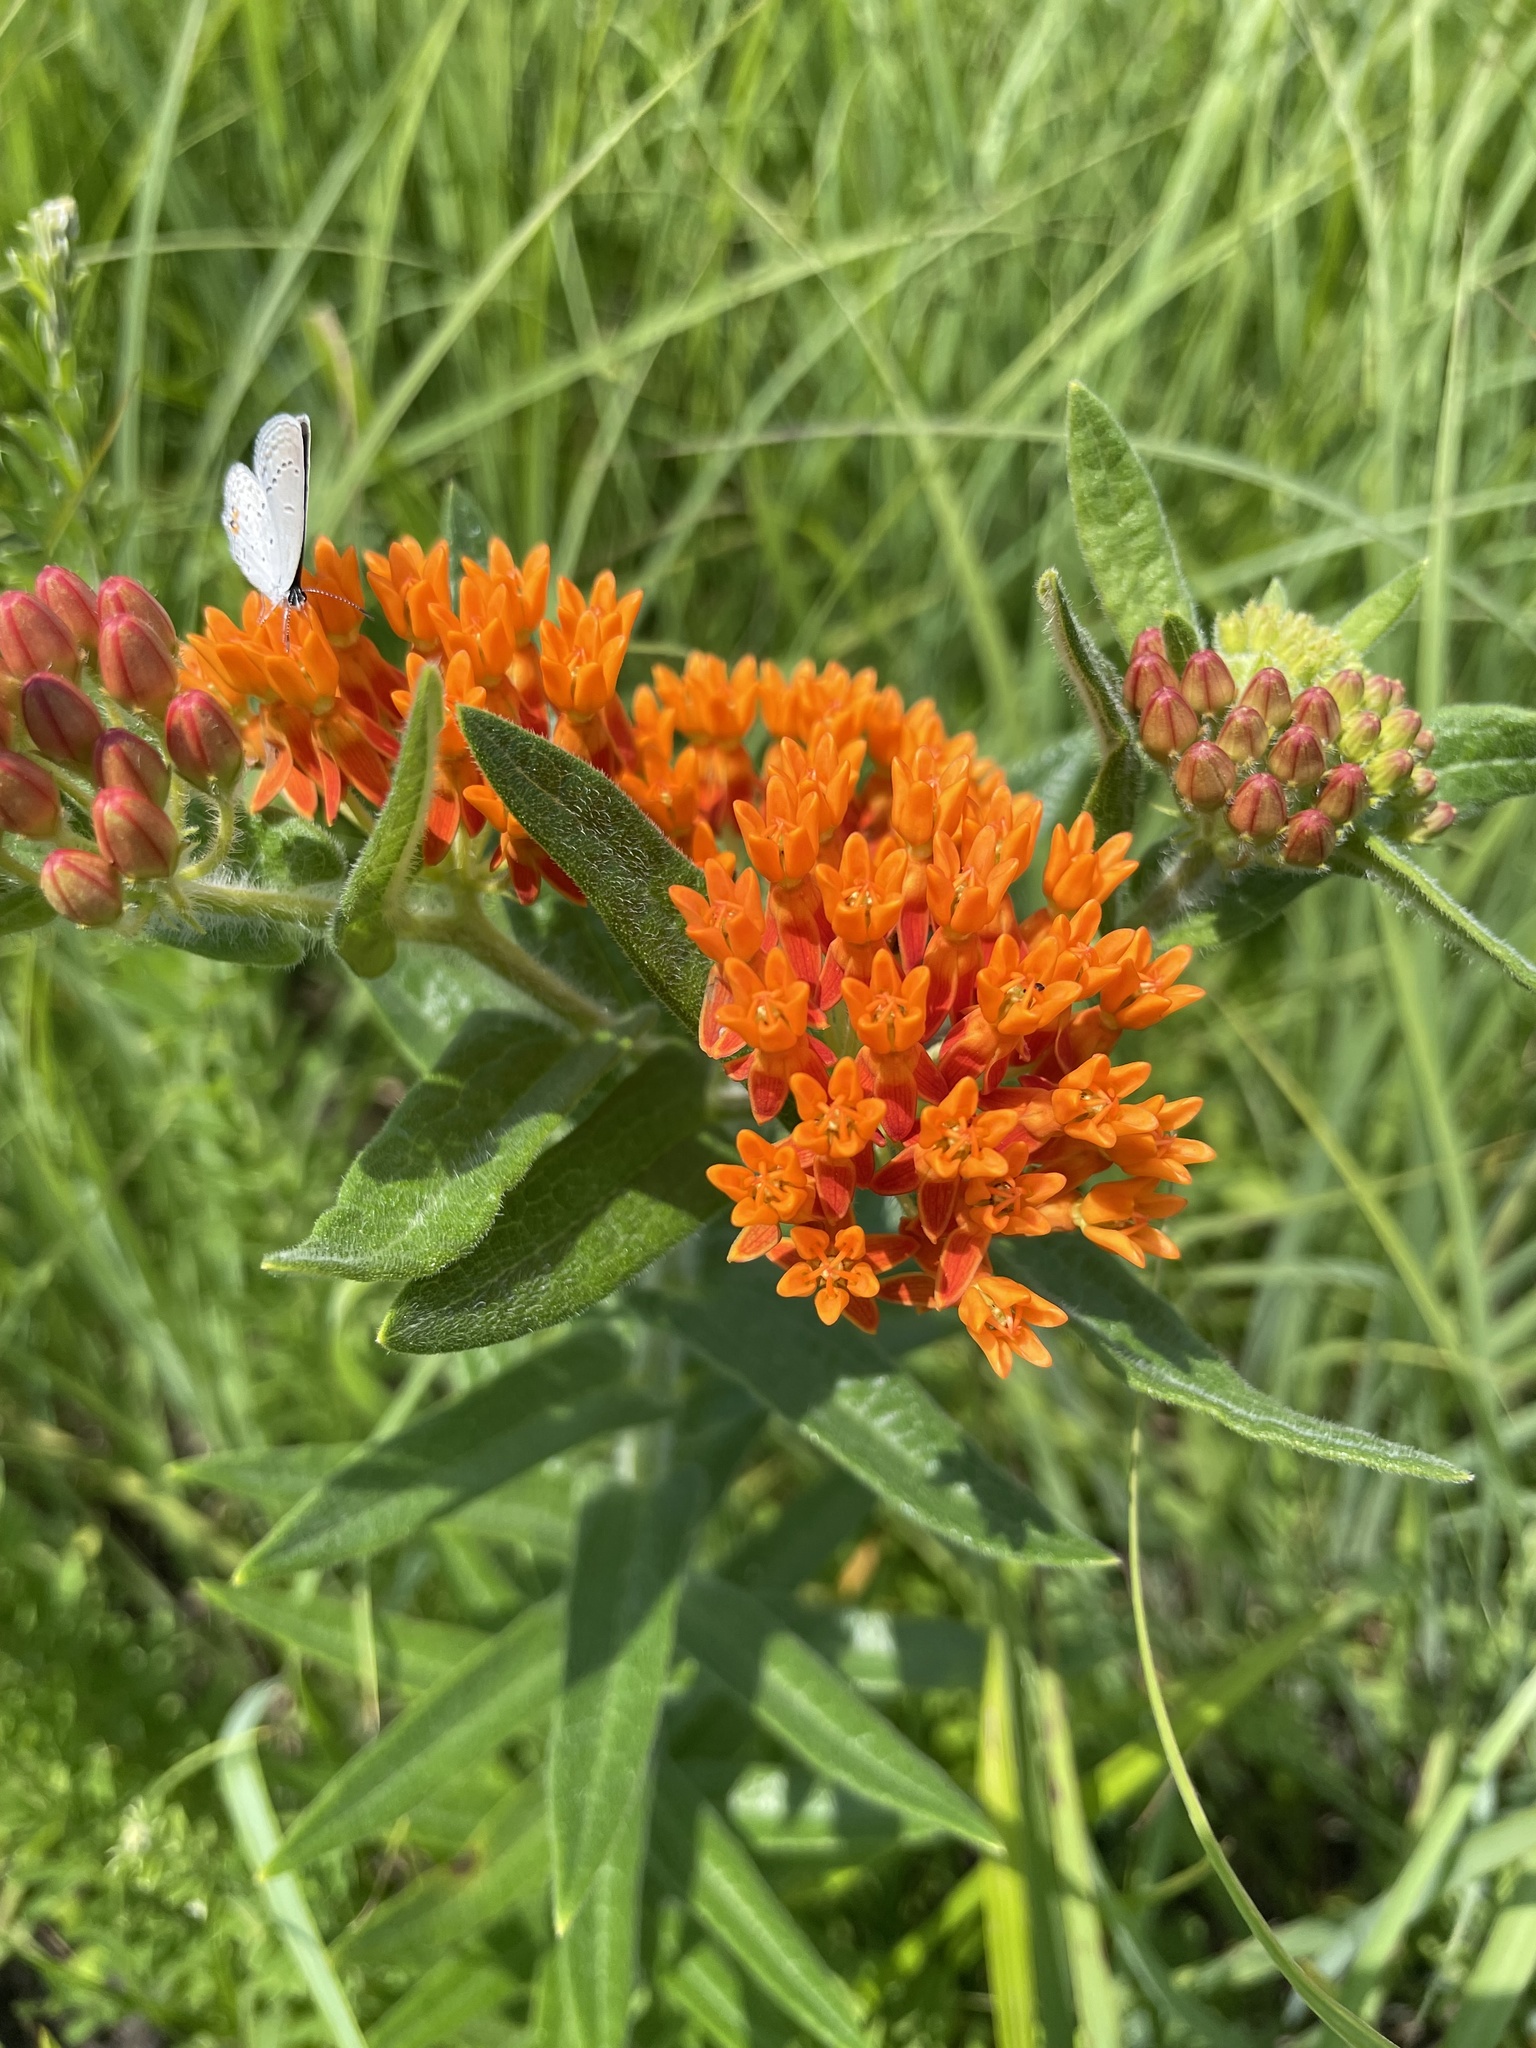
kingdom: Plantae
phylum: Tracheophyta
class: Magnoliopsida
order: Gentianales
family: Apocynaceae
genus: Asclepias
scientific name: Asclepias tuberosa
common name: Butterfly milkweed
